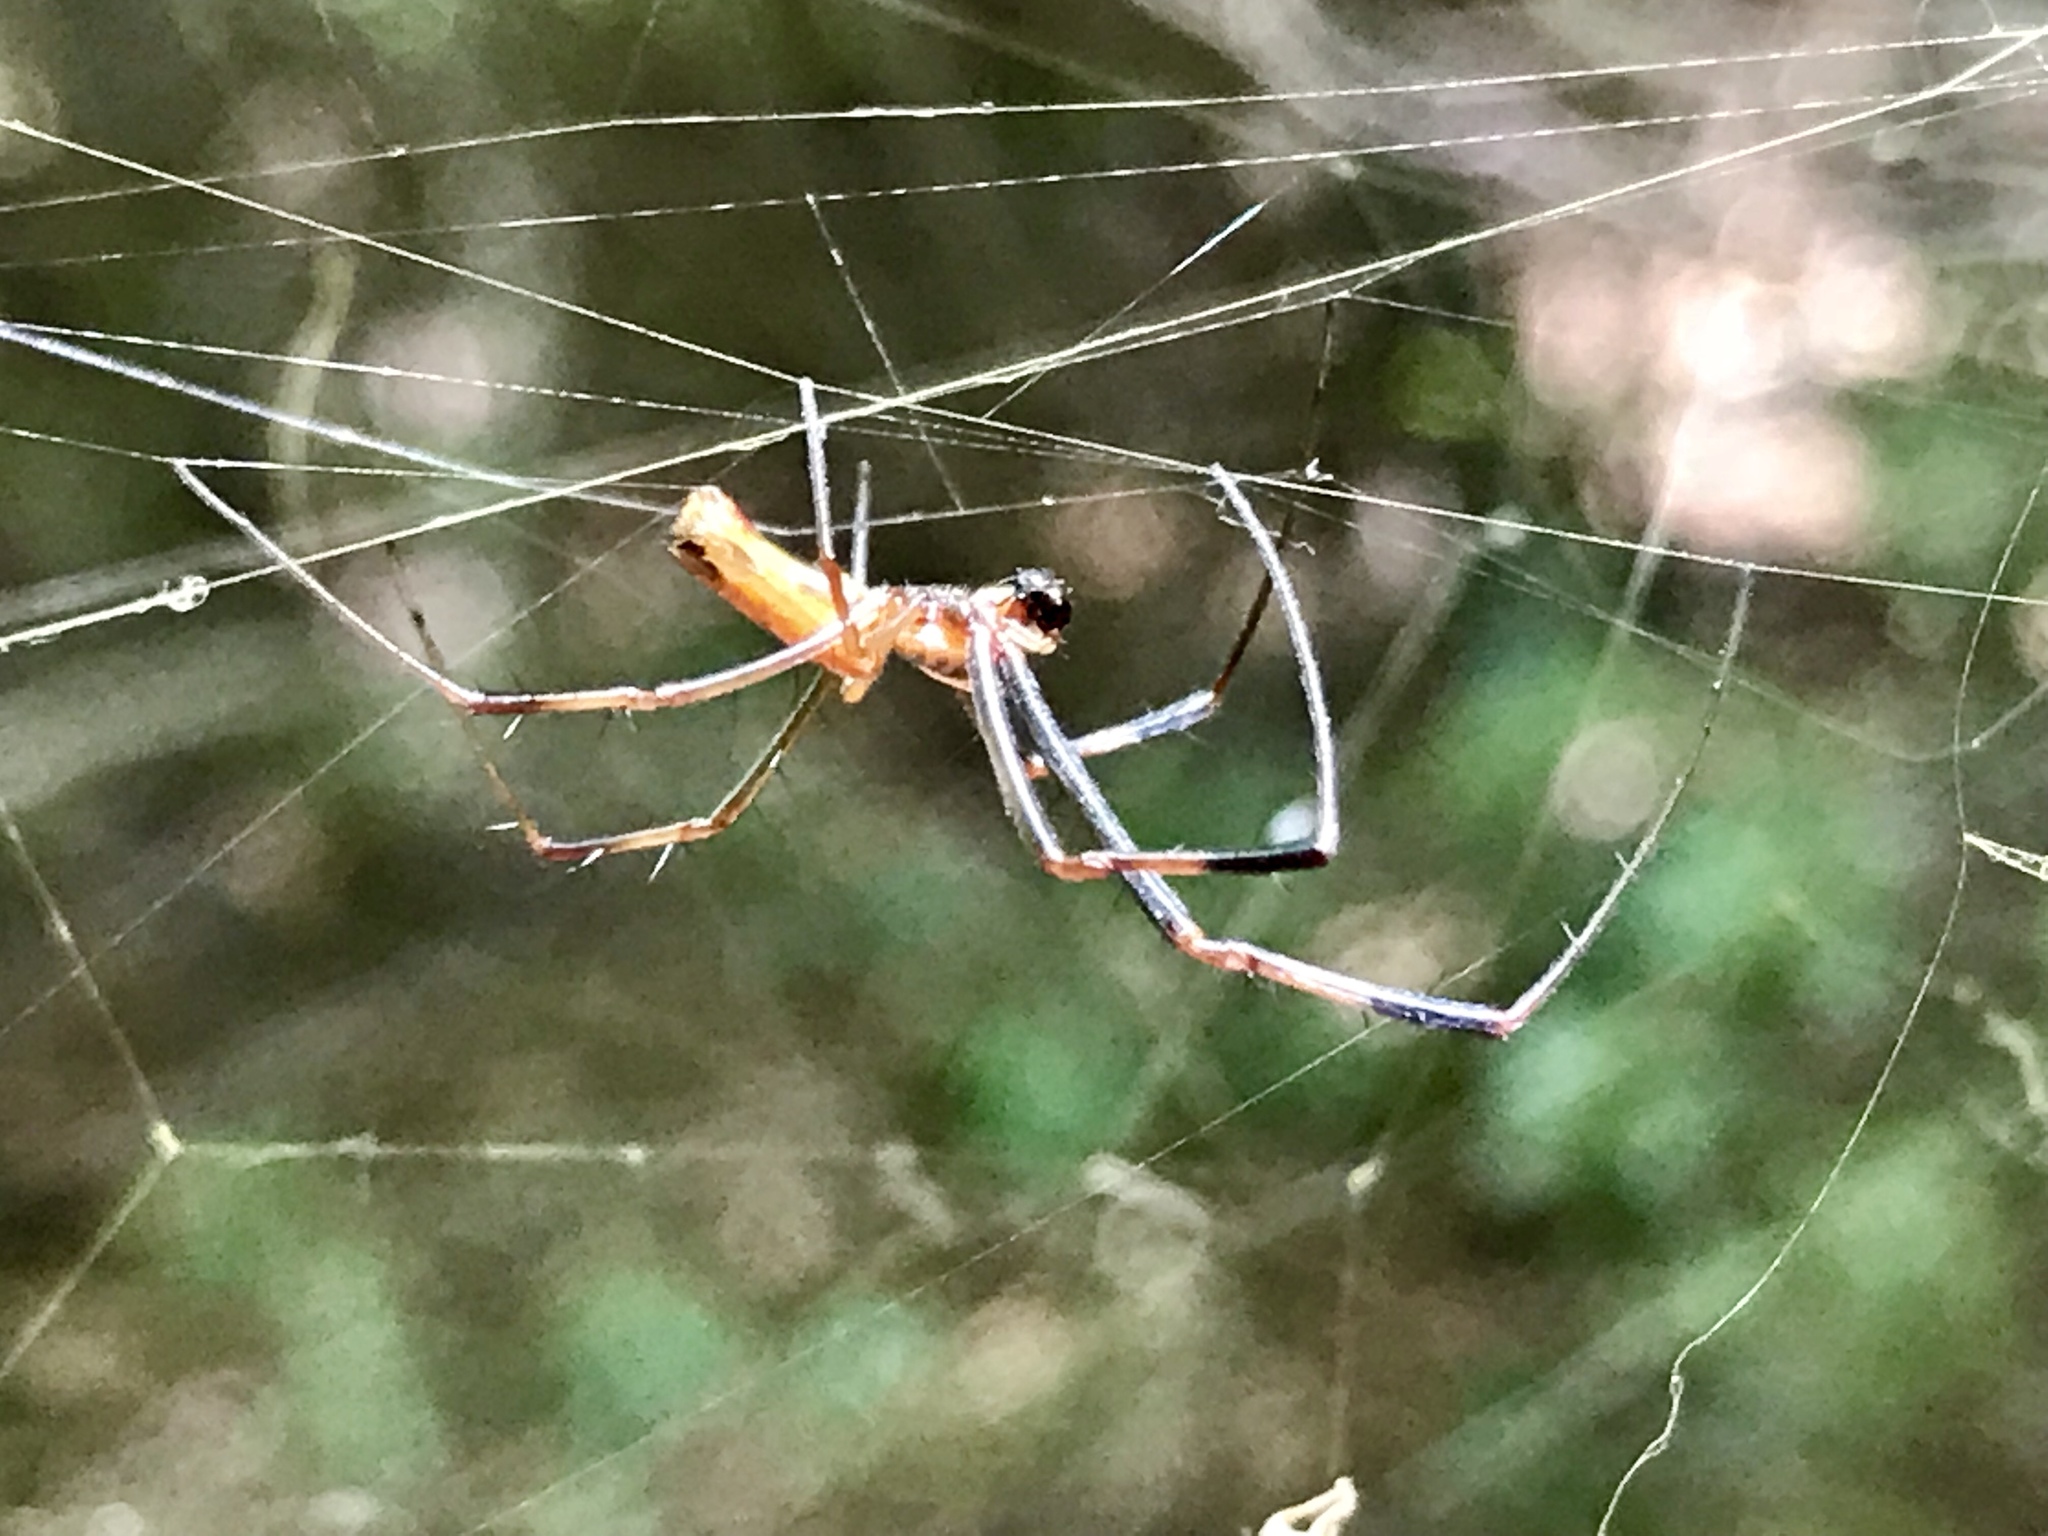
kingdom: Animalia
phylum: Arthropoda
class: Arachnida
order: Araneae
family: Araneidae
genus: Trichonephila
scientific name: Trichonephila clavipes
